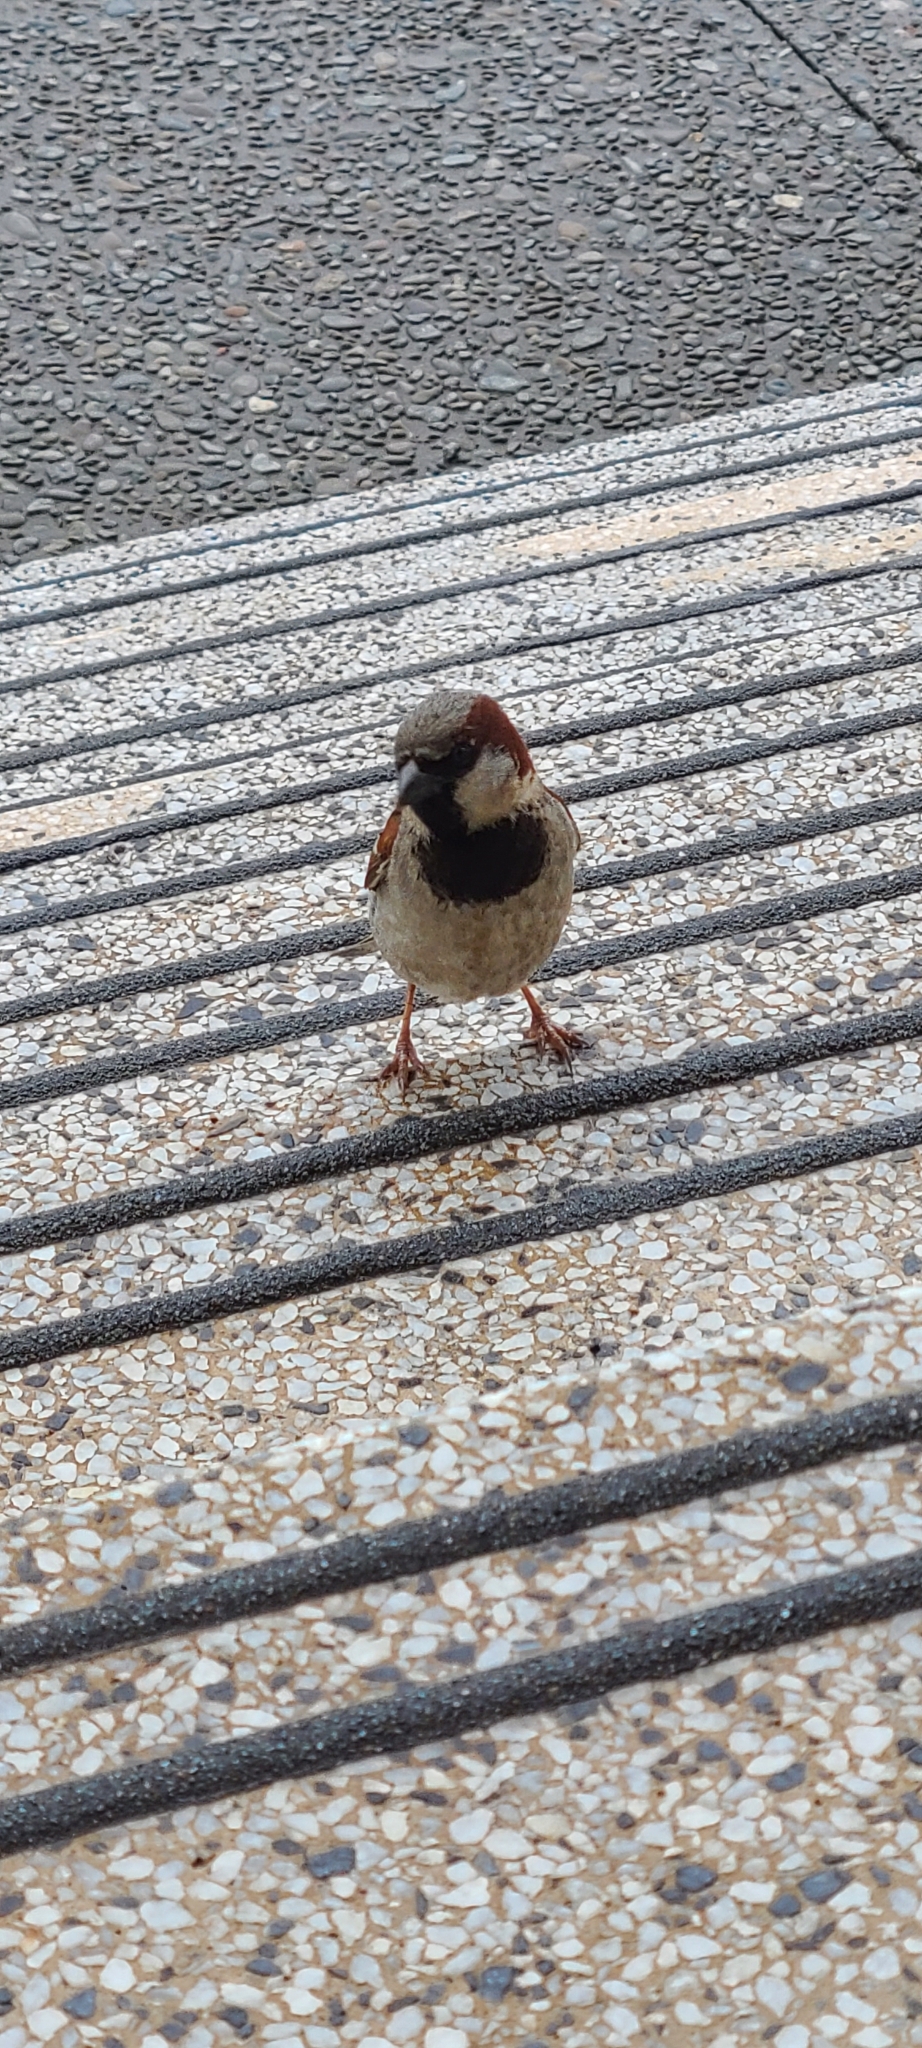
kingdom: Animalia
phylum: Chordata
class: Aves
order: Passeriformes
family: Passeridae
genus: Passer
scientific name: Passer domesticus
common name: House sparrow
